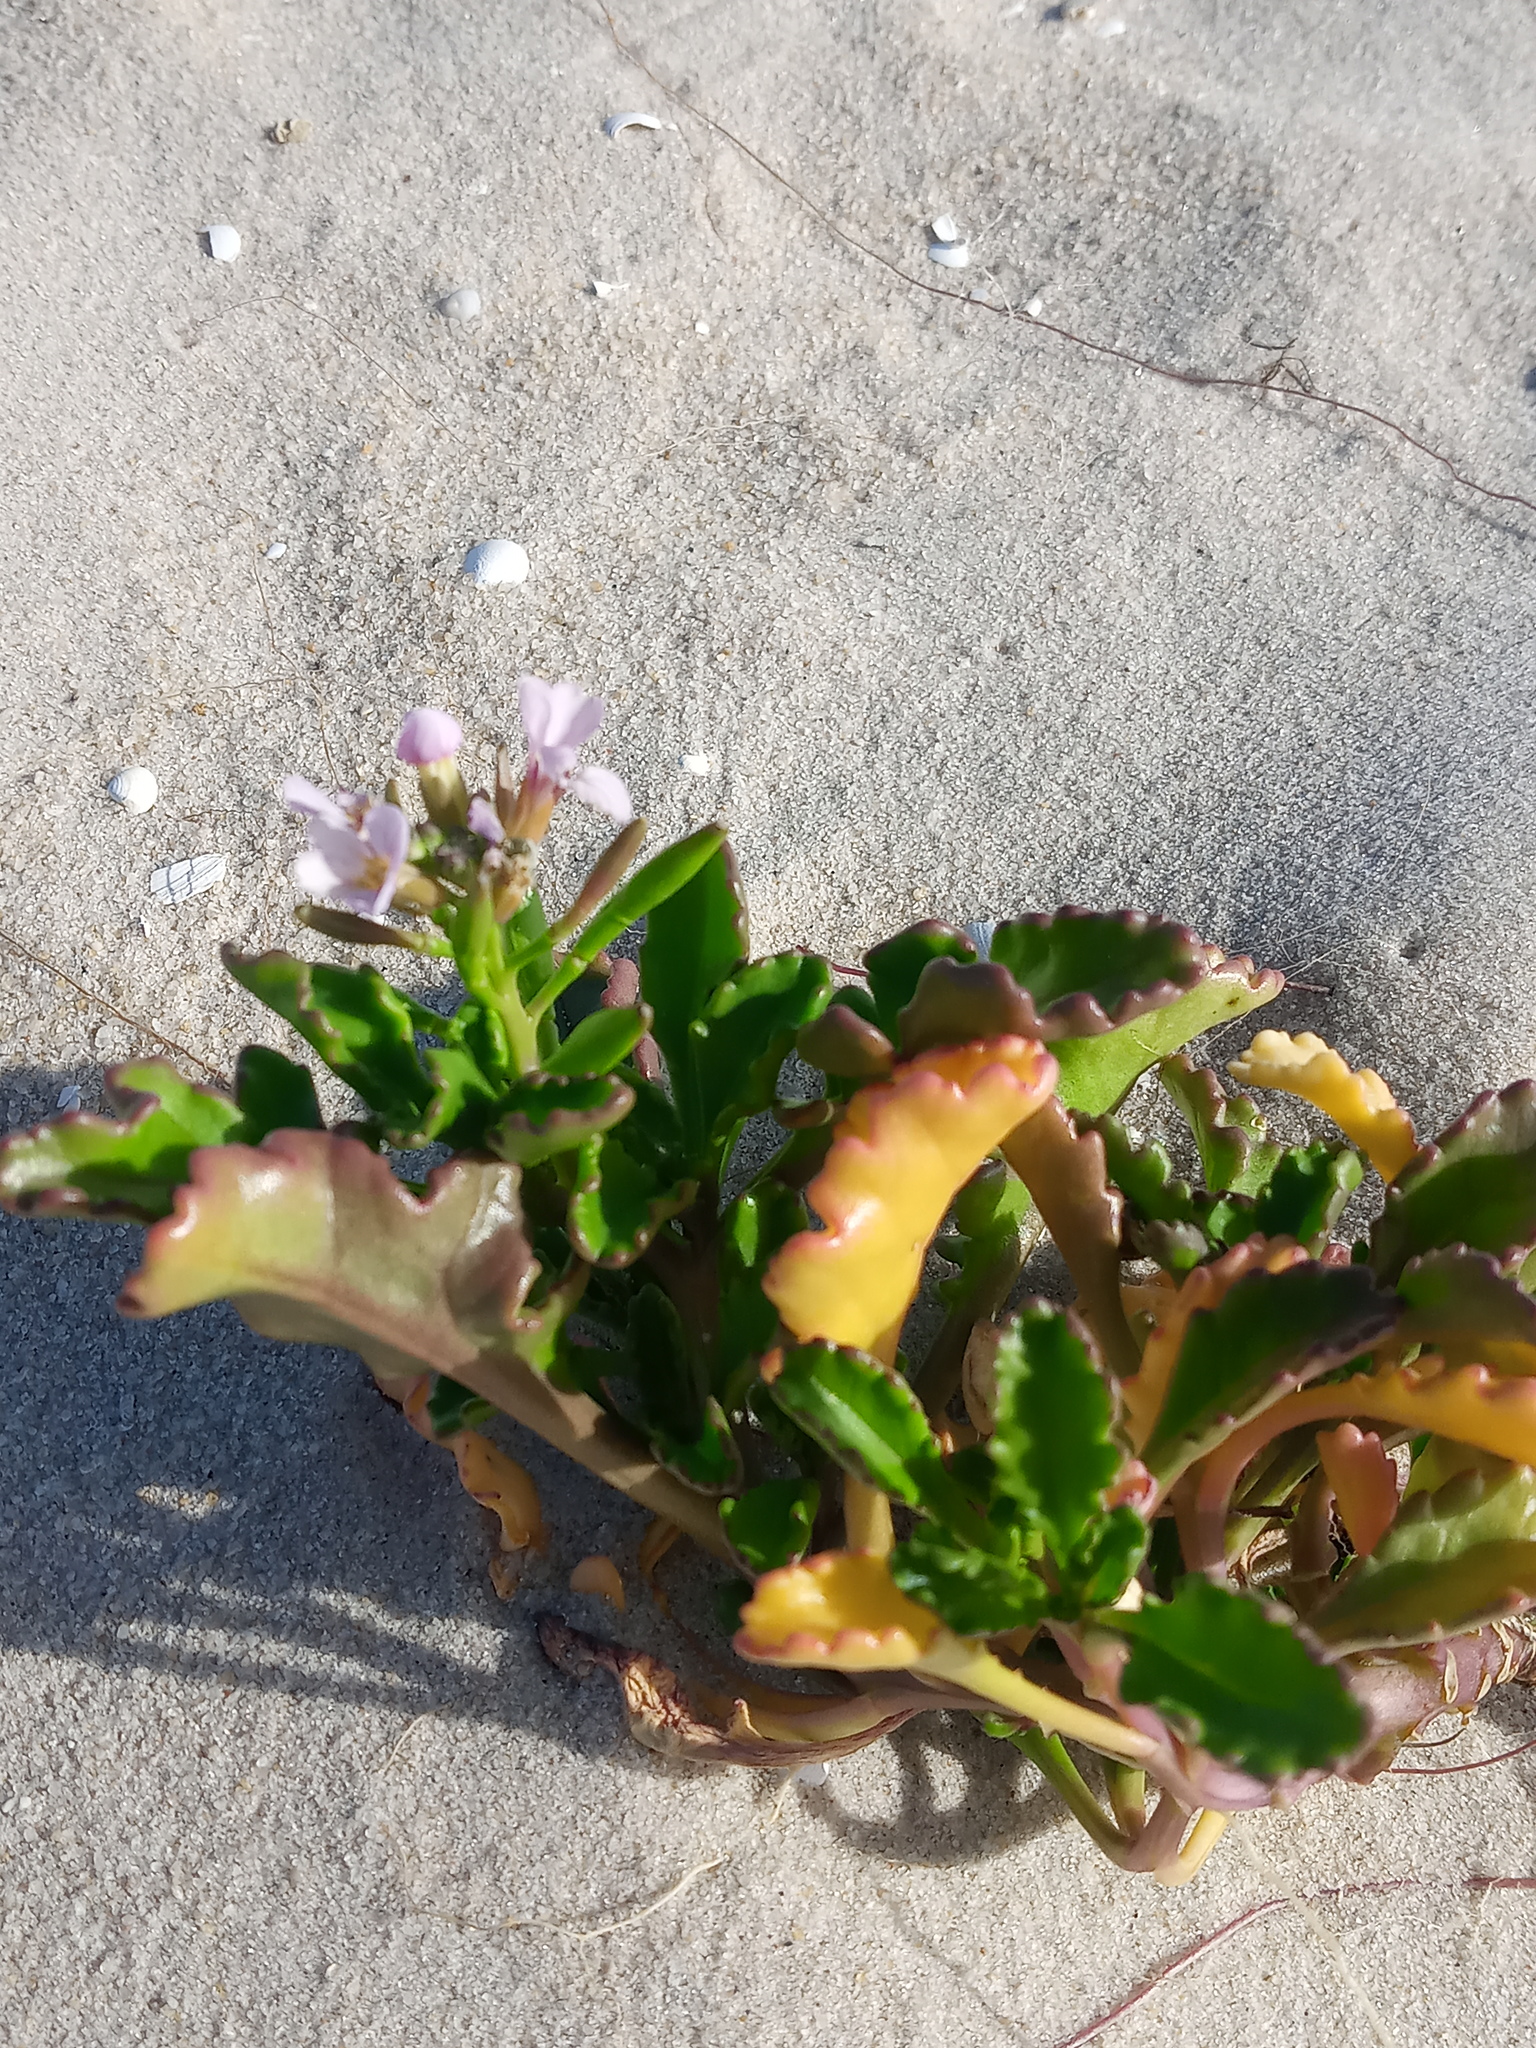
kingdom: Plantae
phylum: Tracheophyta
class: Magnoliopsida
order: Brassicales
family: Brassicaceae
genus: Cakile
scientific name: Cakile constricta
